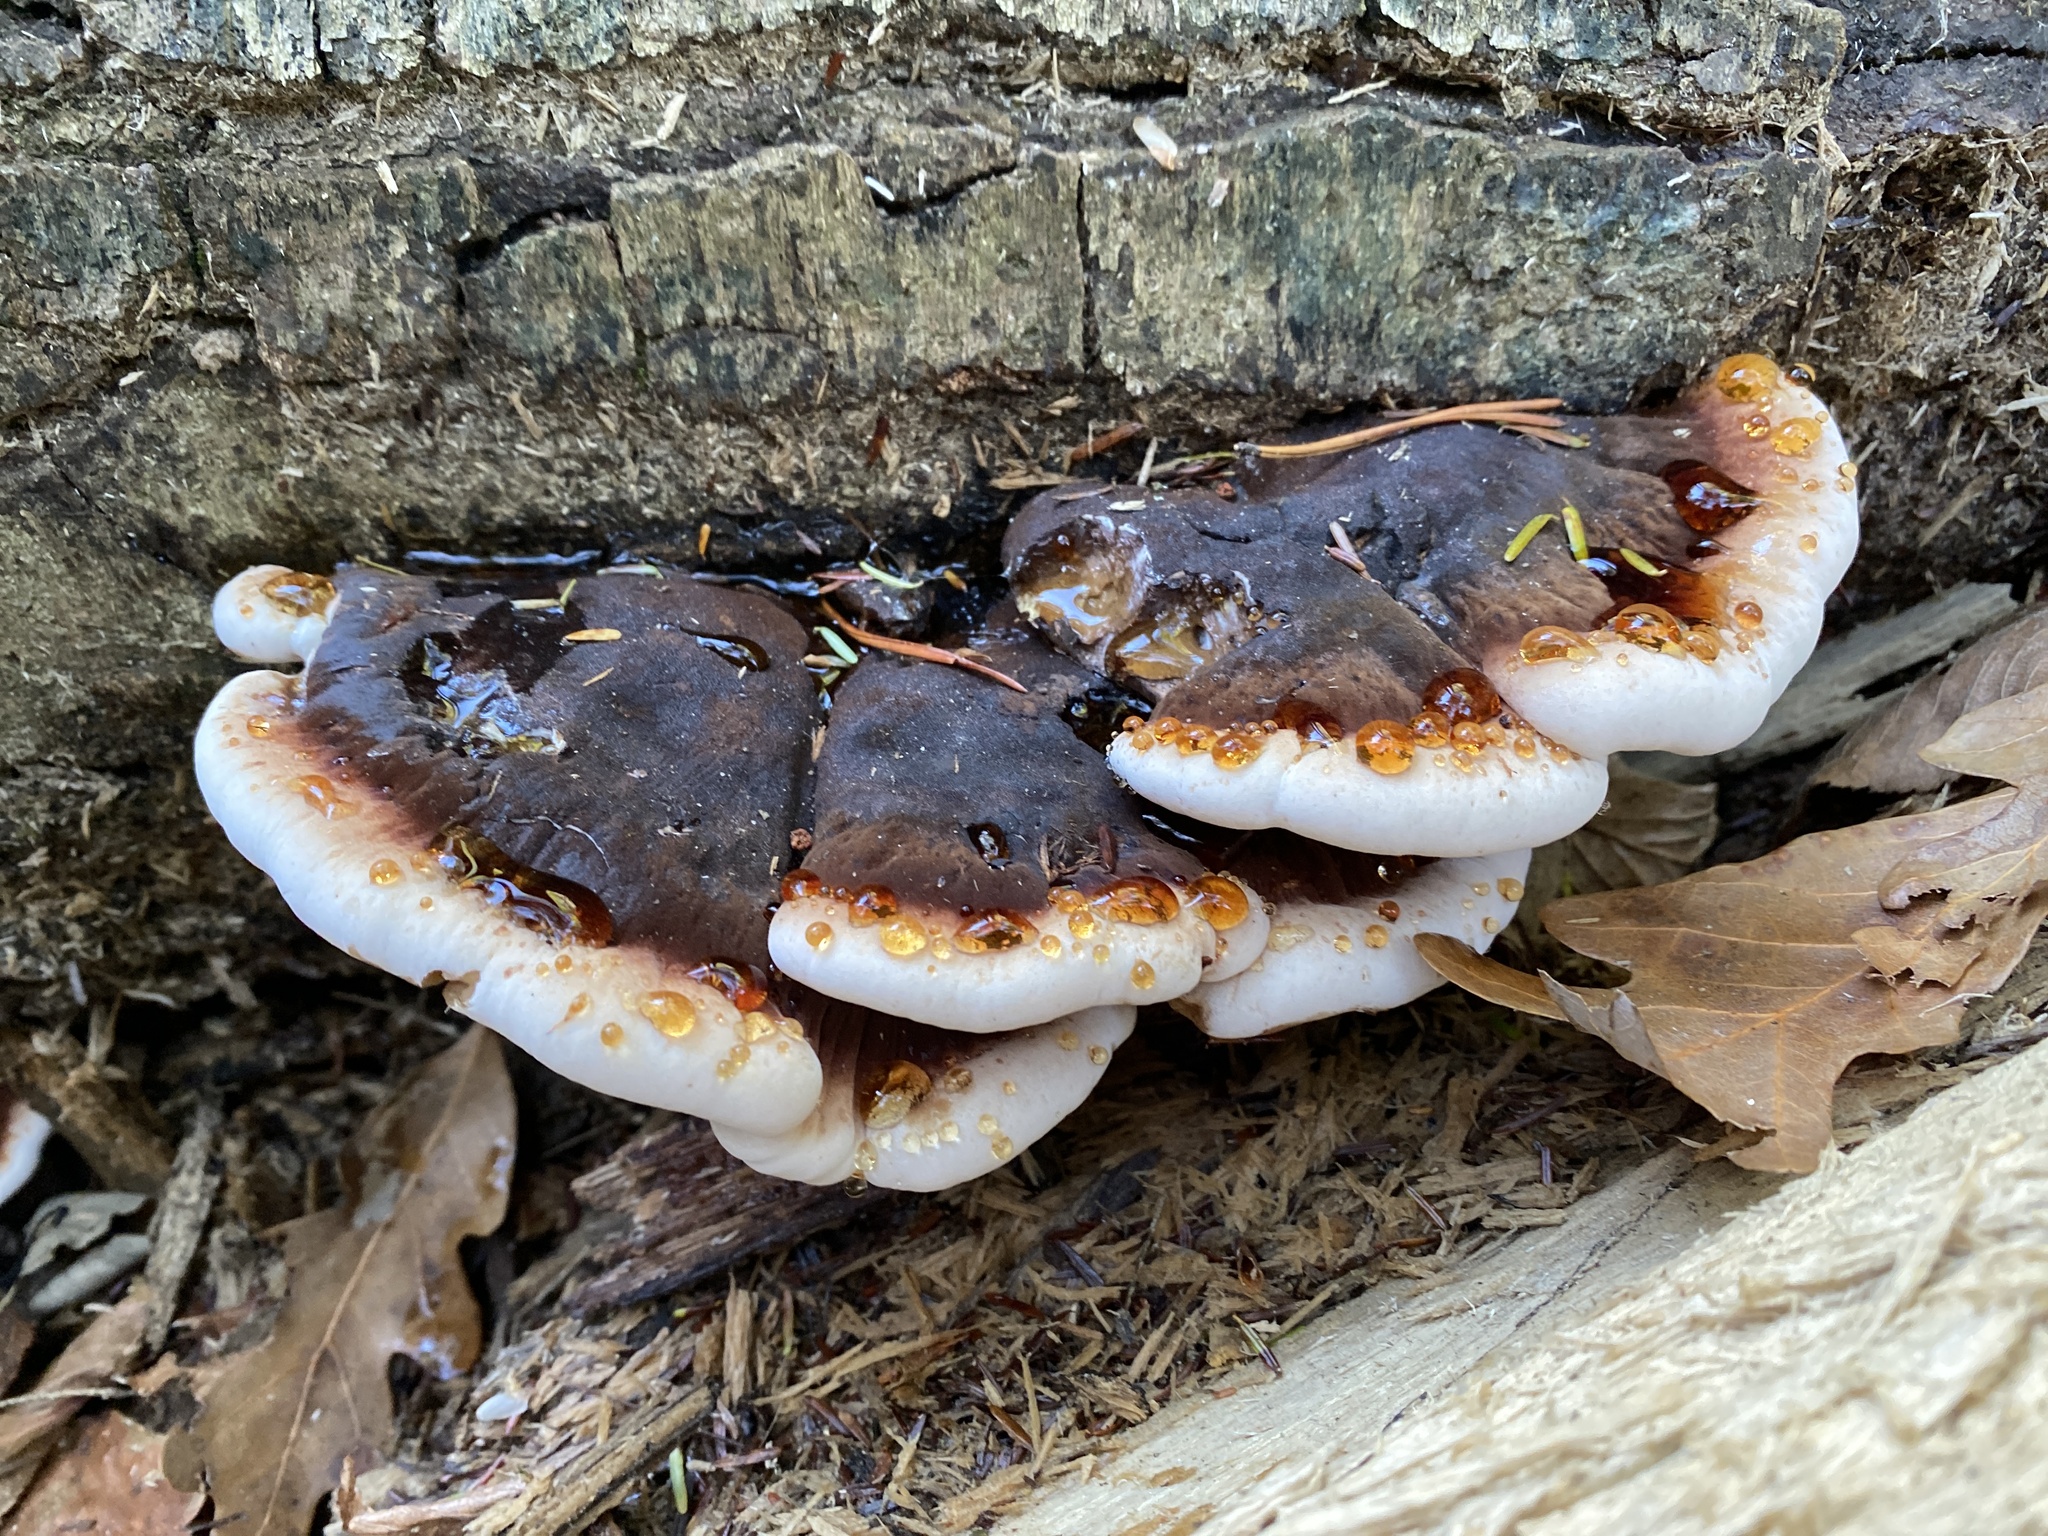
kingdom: Fungi
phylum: Basidiomycota
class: Agaricomycetes
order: Polyporales
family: Ischnodermataceae
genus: Ischnoderma
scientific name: Ischnoderma resinosum
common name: Resinous polypore
